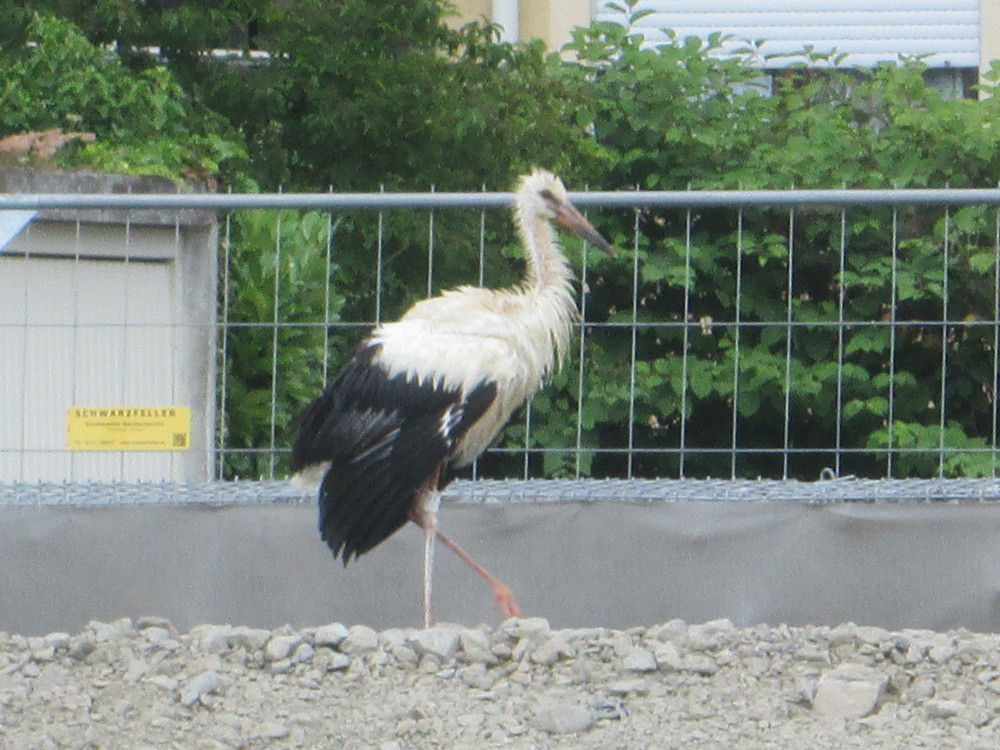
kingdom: Animalia
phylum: Chordata
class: Aves
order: Ciconiiformes
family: Ciconiidae
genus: Ciconia
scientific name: Ciconia ciconia
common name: White stork
